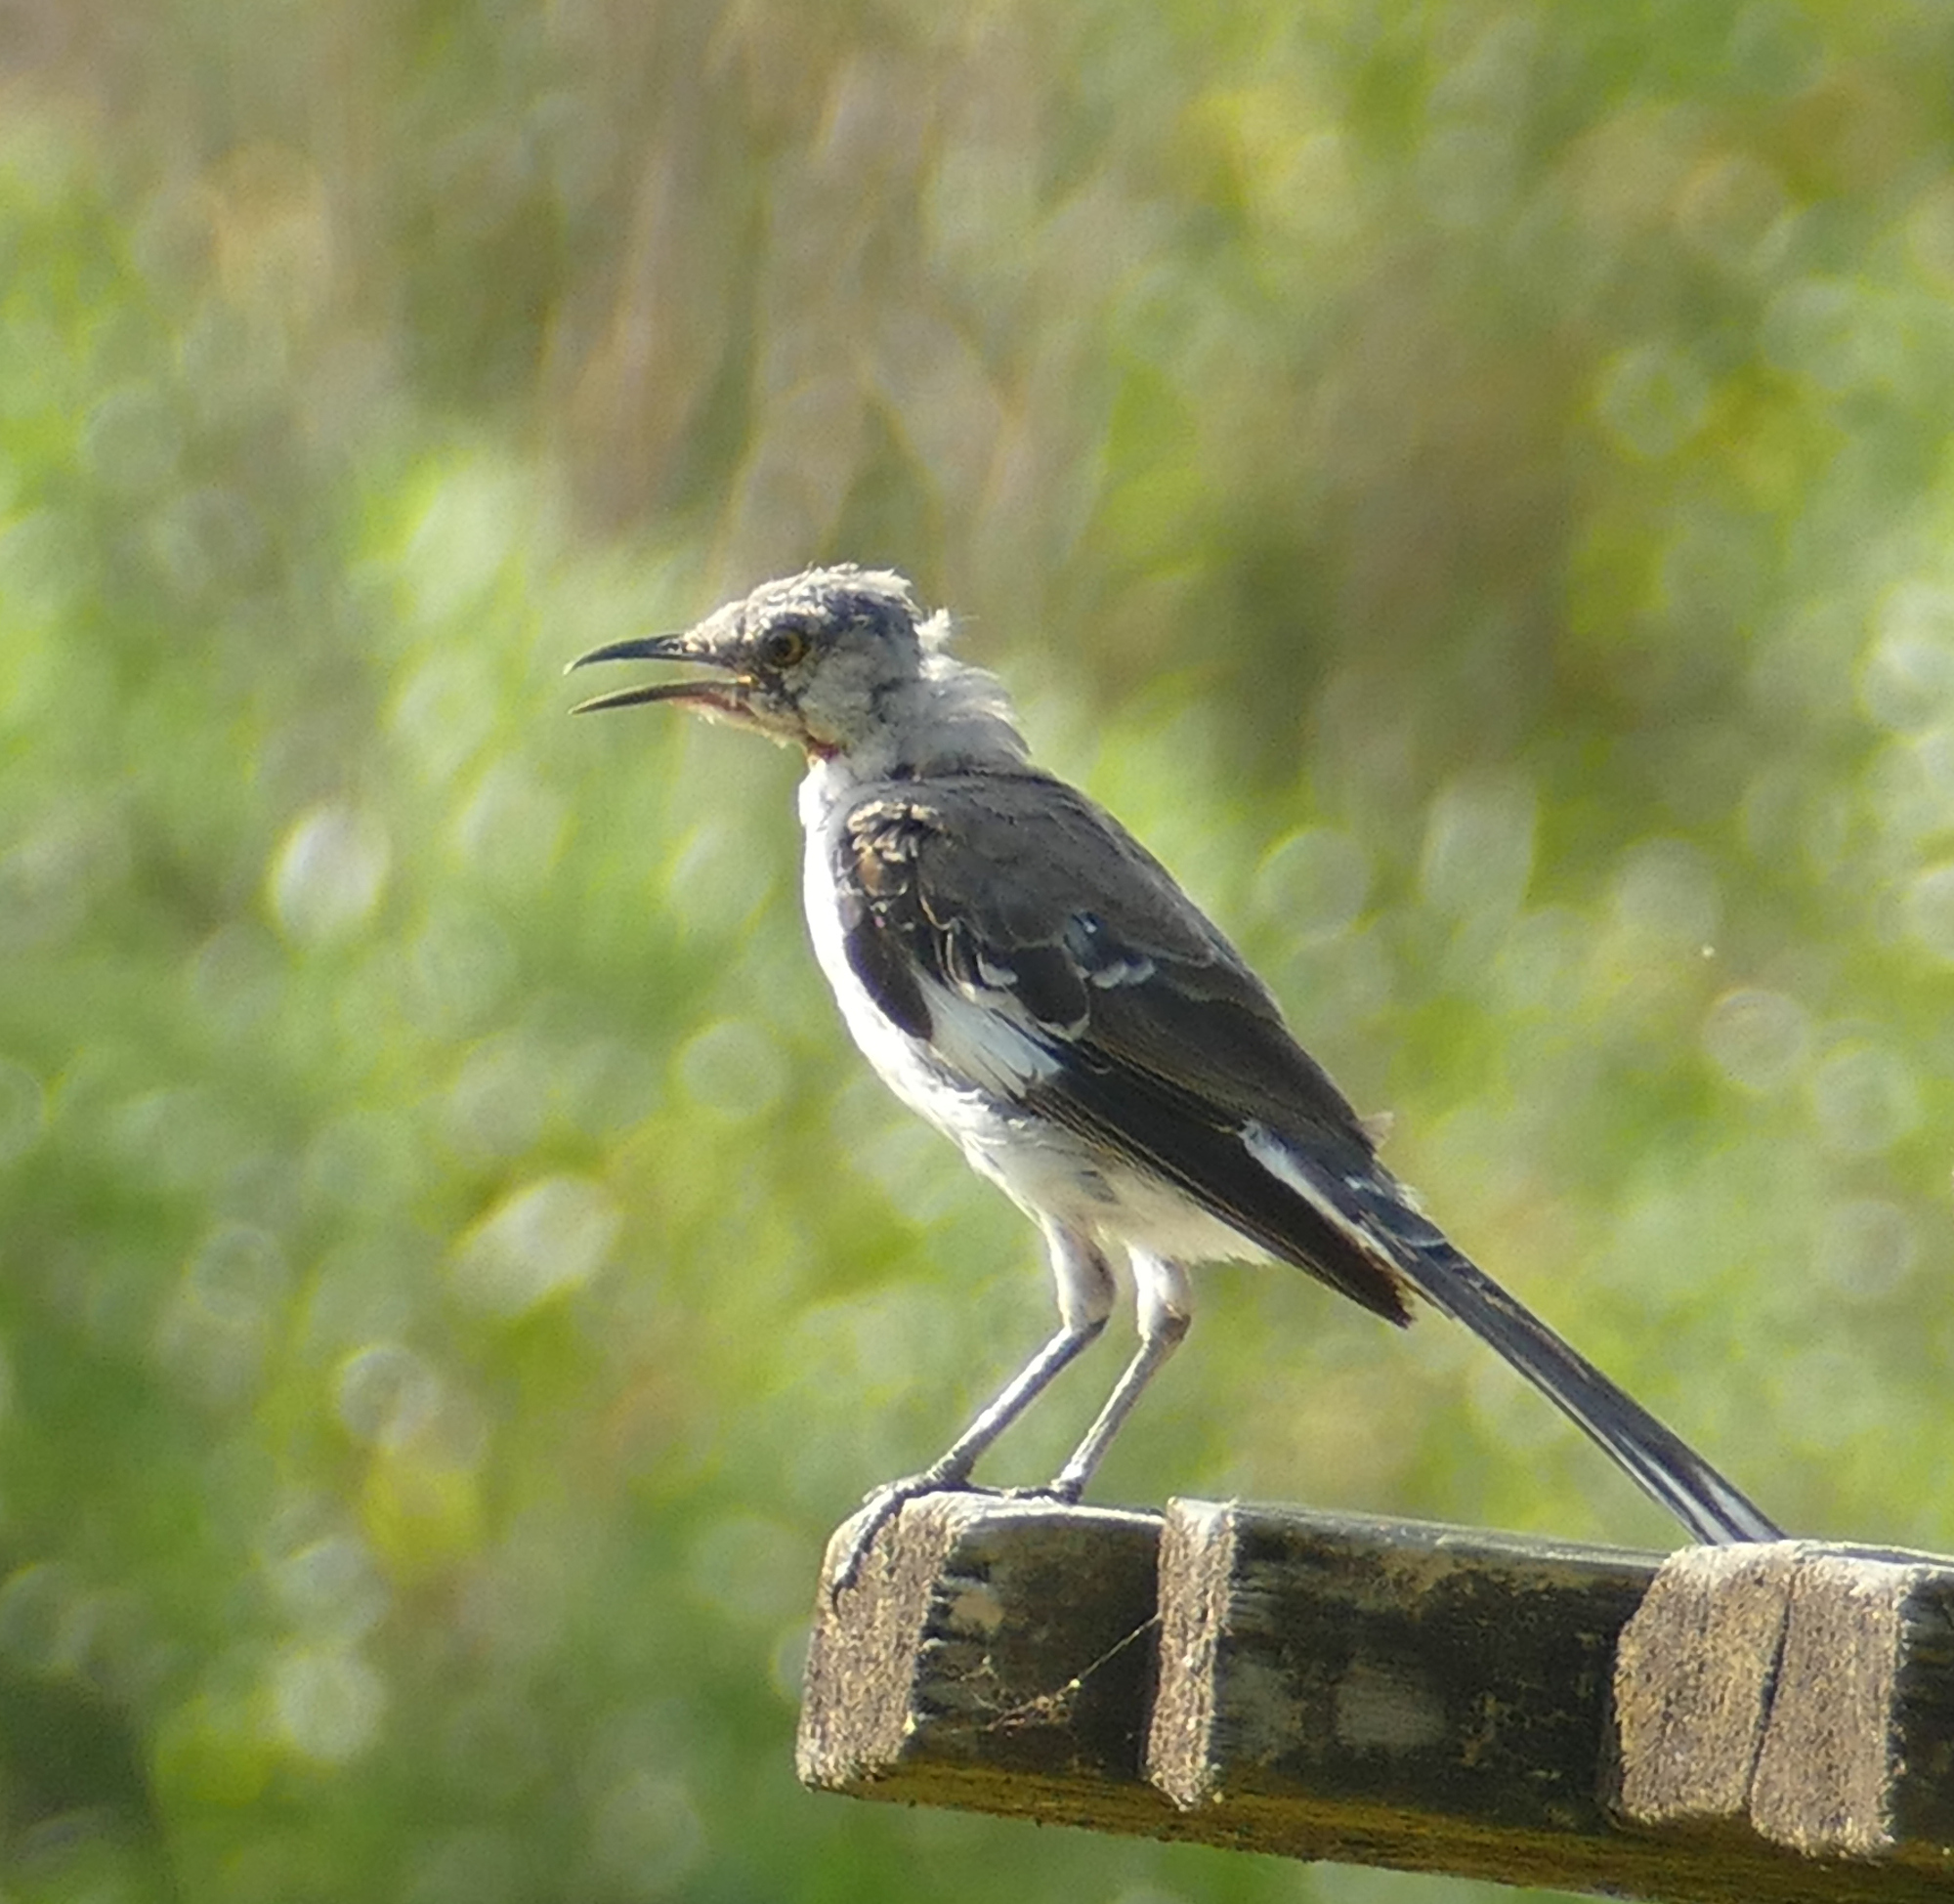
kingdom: Animalia
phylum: Chordata
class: Aves
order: Passeriformes
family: Mimidae
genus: Mimus
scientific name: Mimus polyglottos
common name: Northern mockingbird
